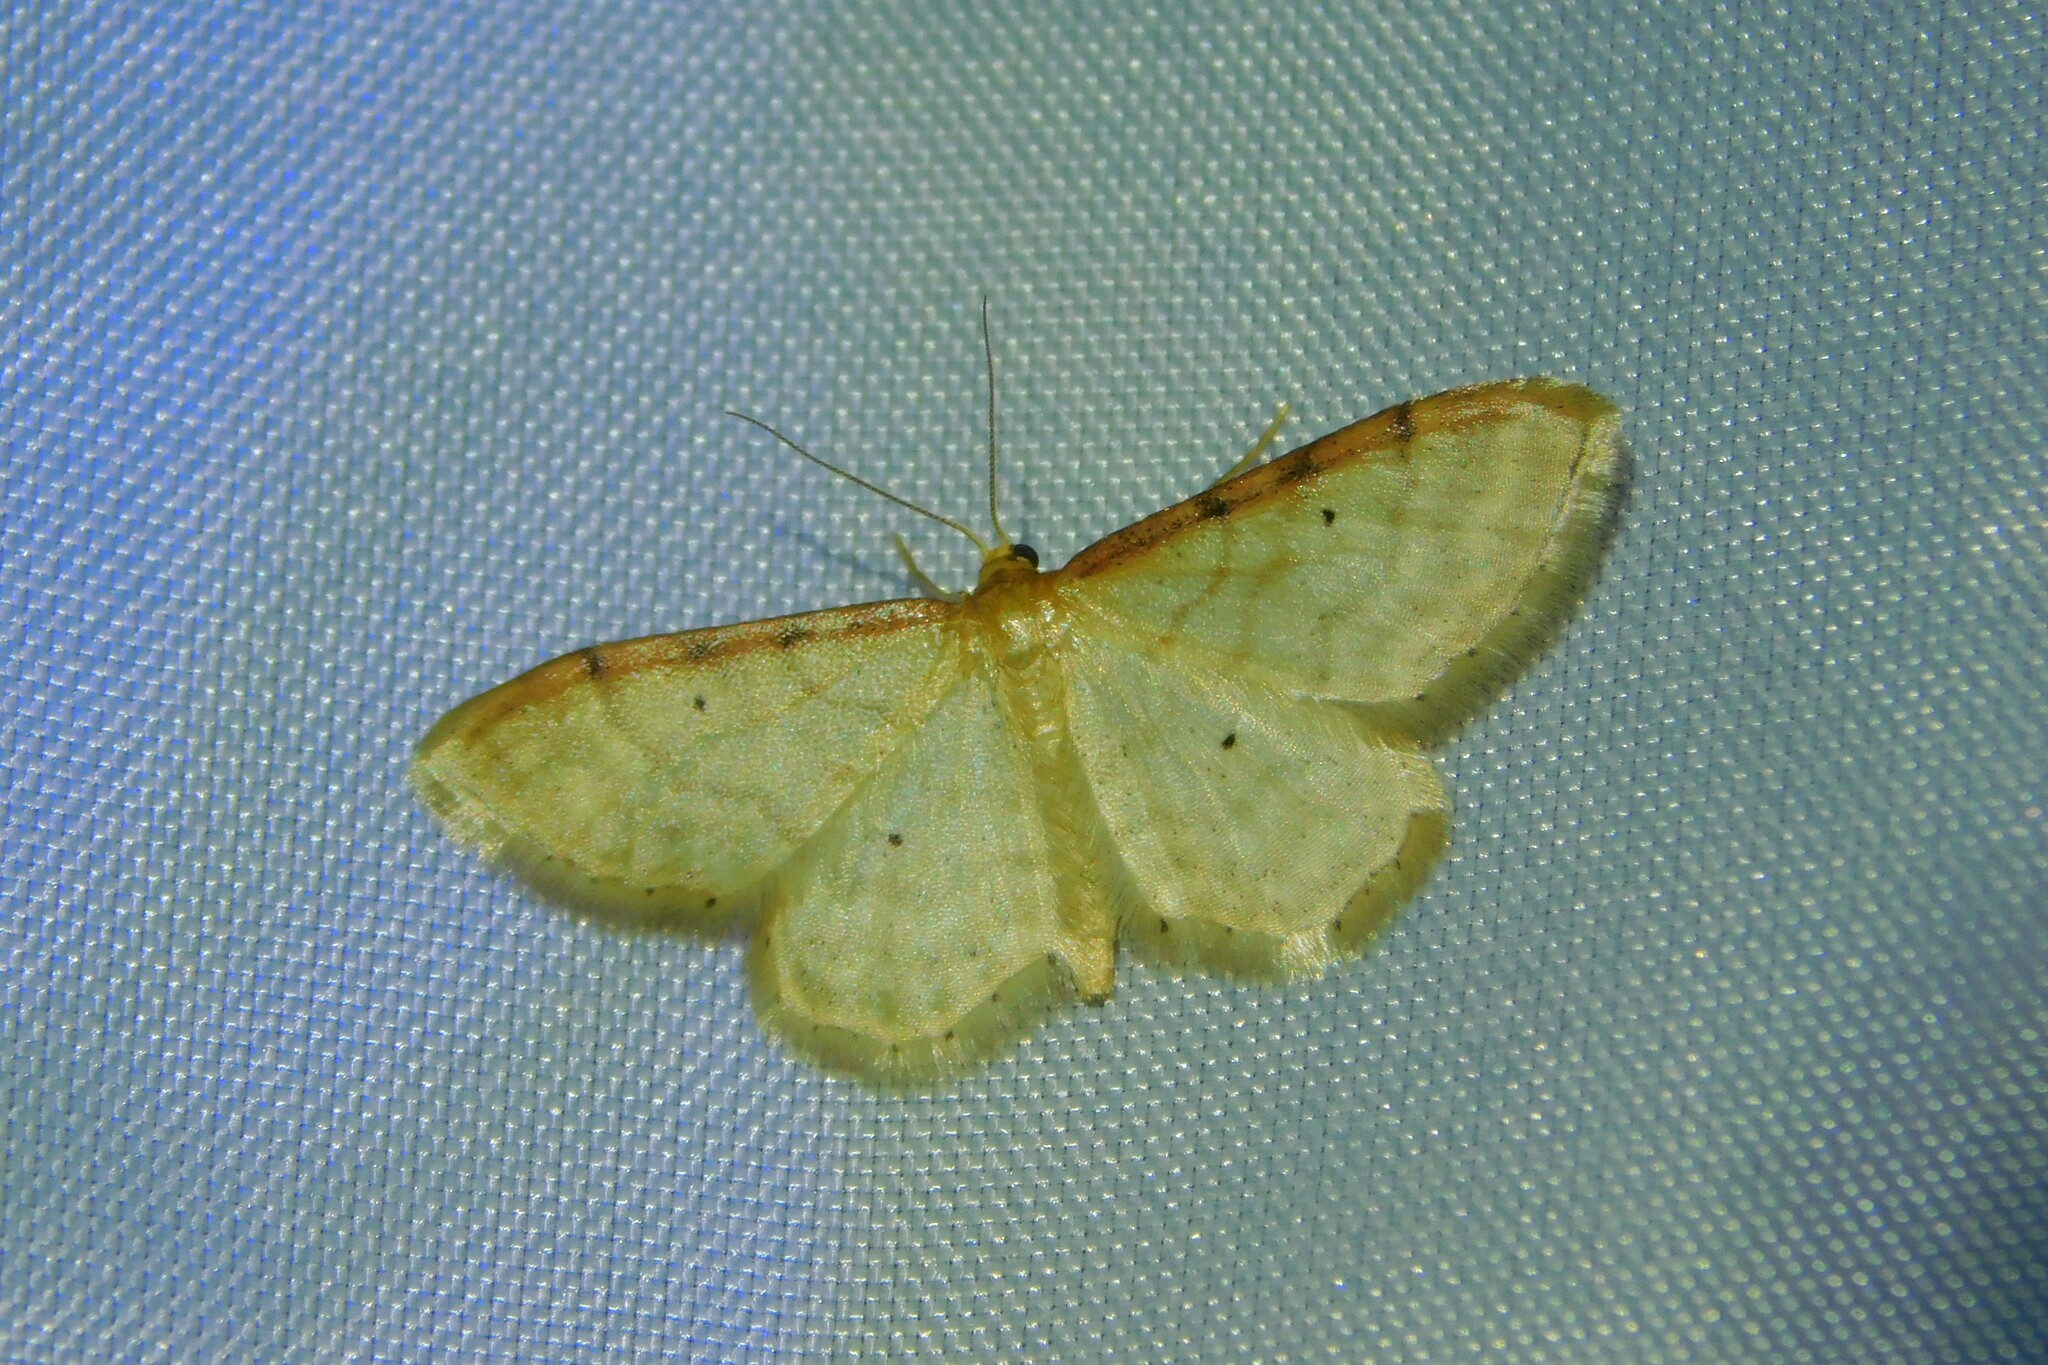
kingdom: Animalia
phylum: Arthropoda
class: Insecta
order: Lepidoptera
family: Geometridae
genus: Idaea
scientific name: Idaea humiliata
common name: Isle of wight wave
